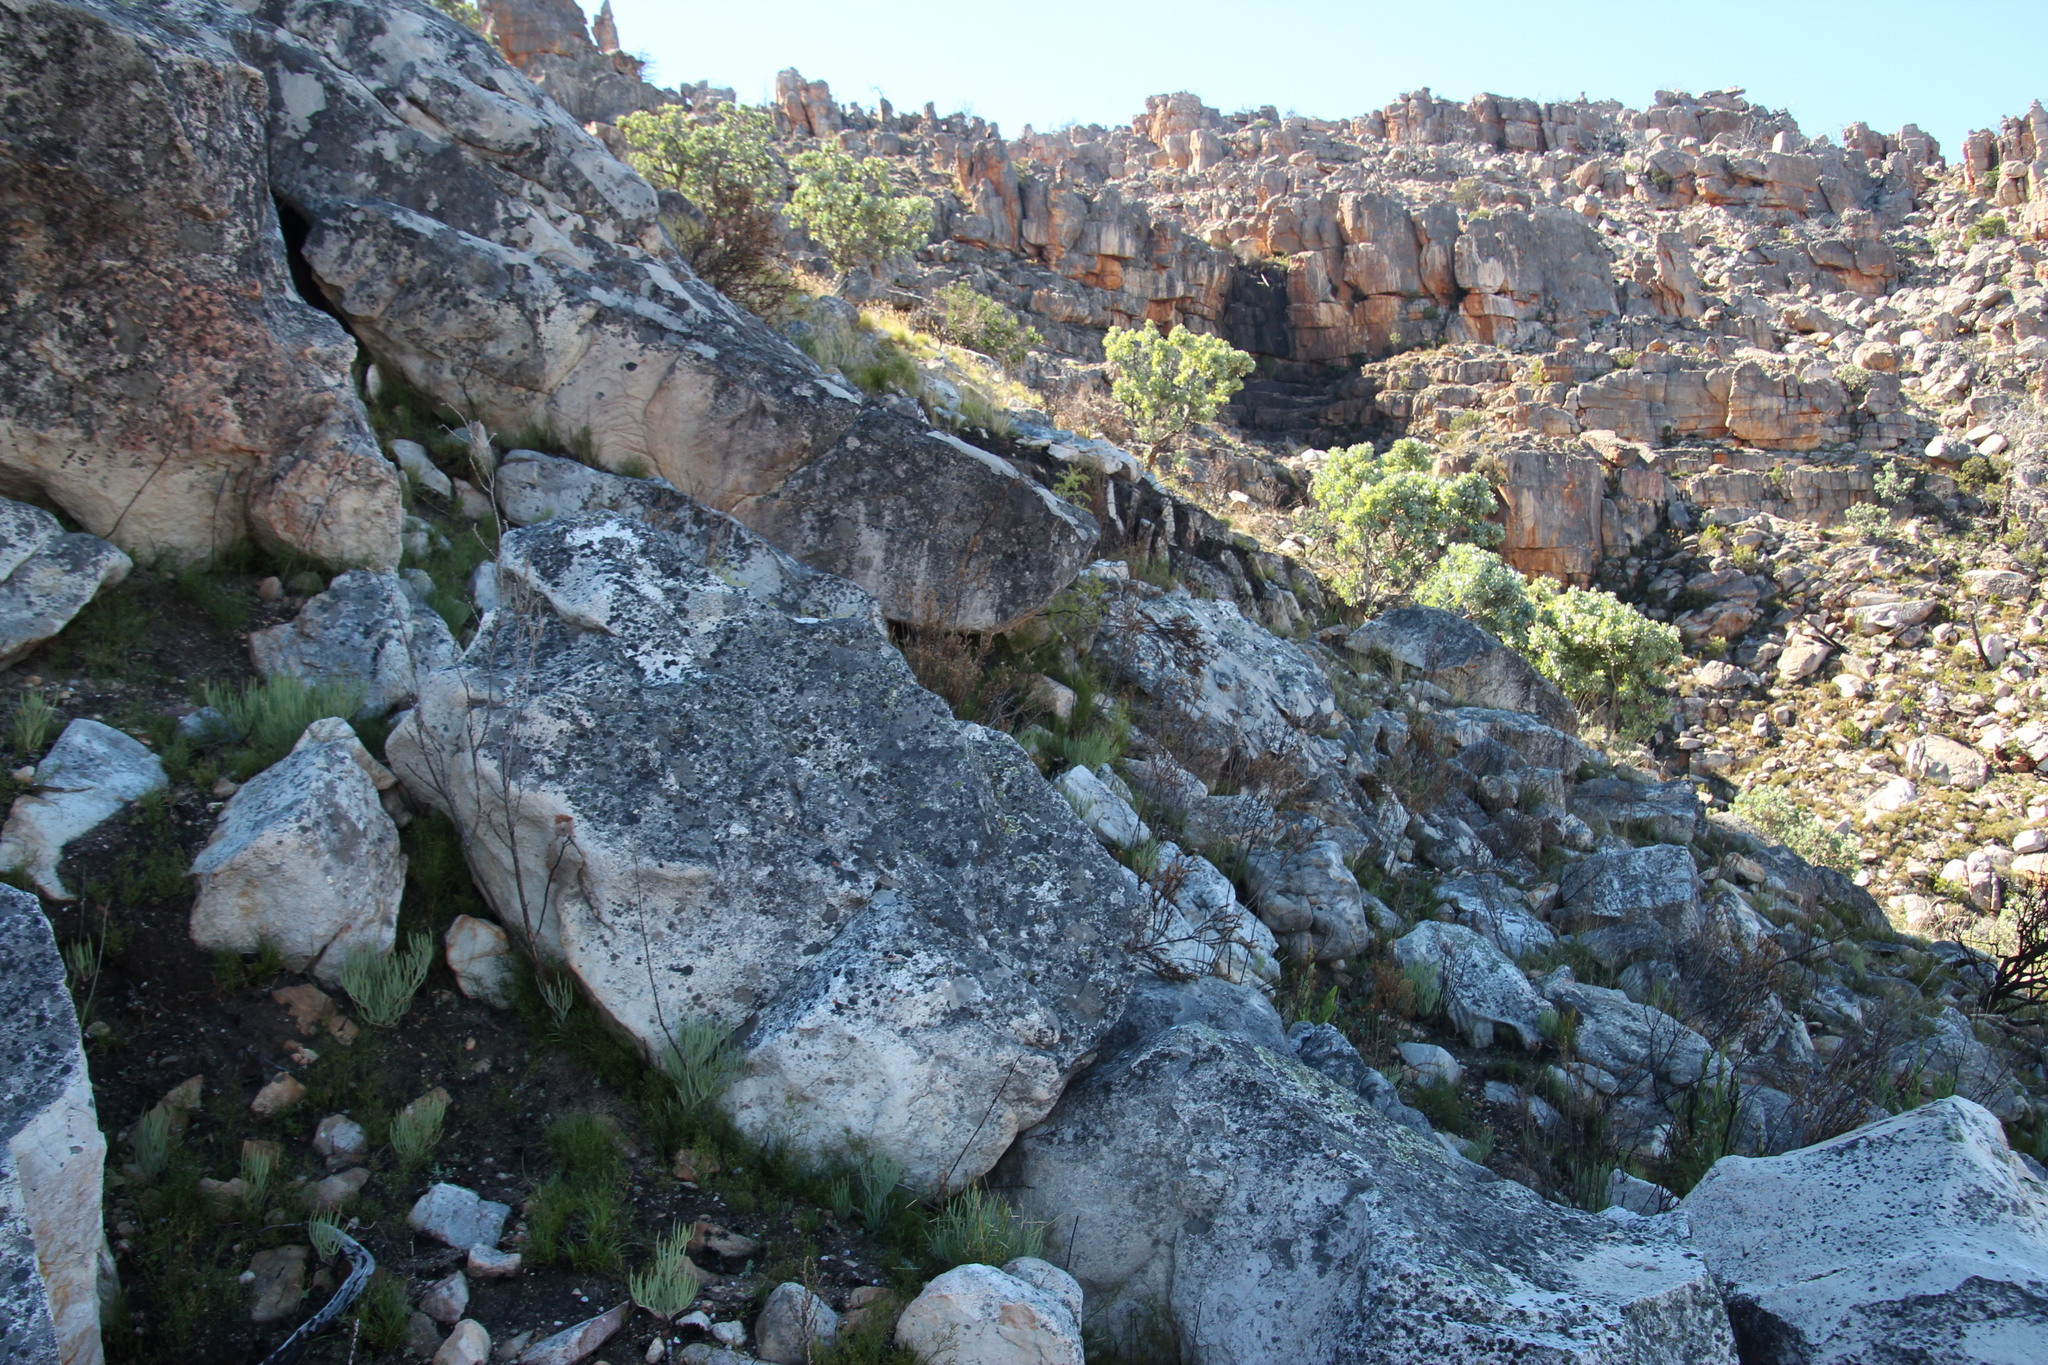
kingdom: Plantae
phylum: Tracheophyta
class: Magnoliopsida
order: Geraniales
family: Geraniaceae
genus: Pelargonium
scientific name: Pelargonium laevigatum
